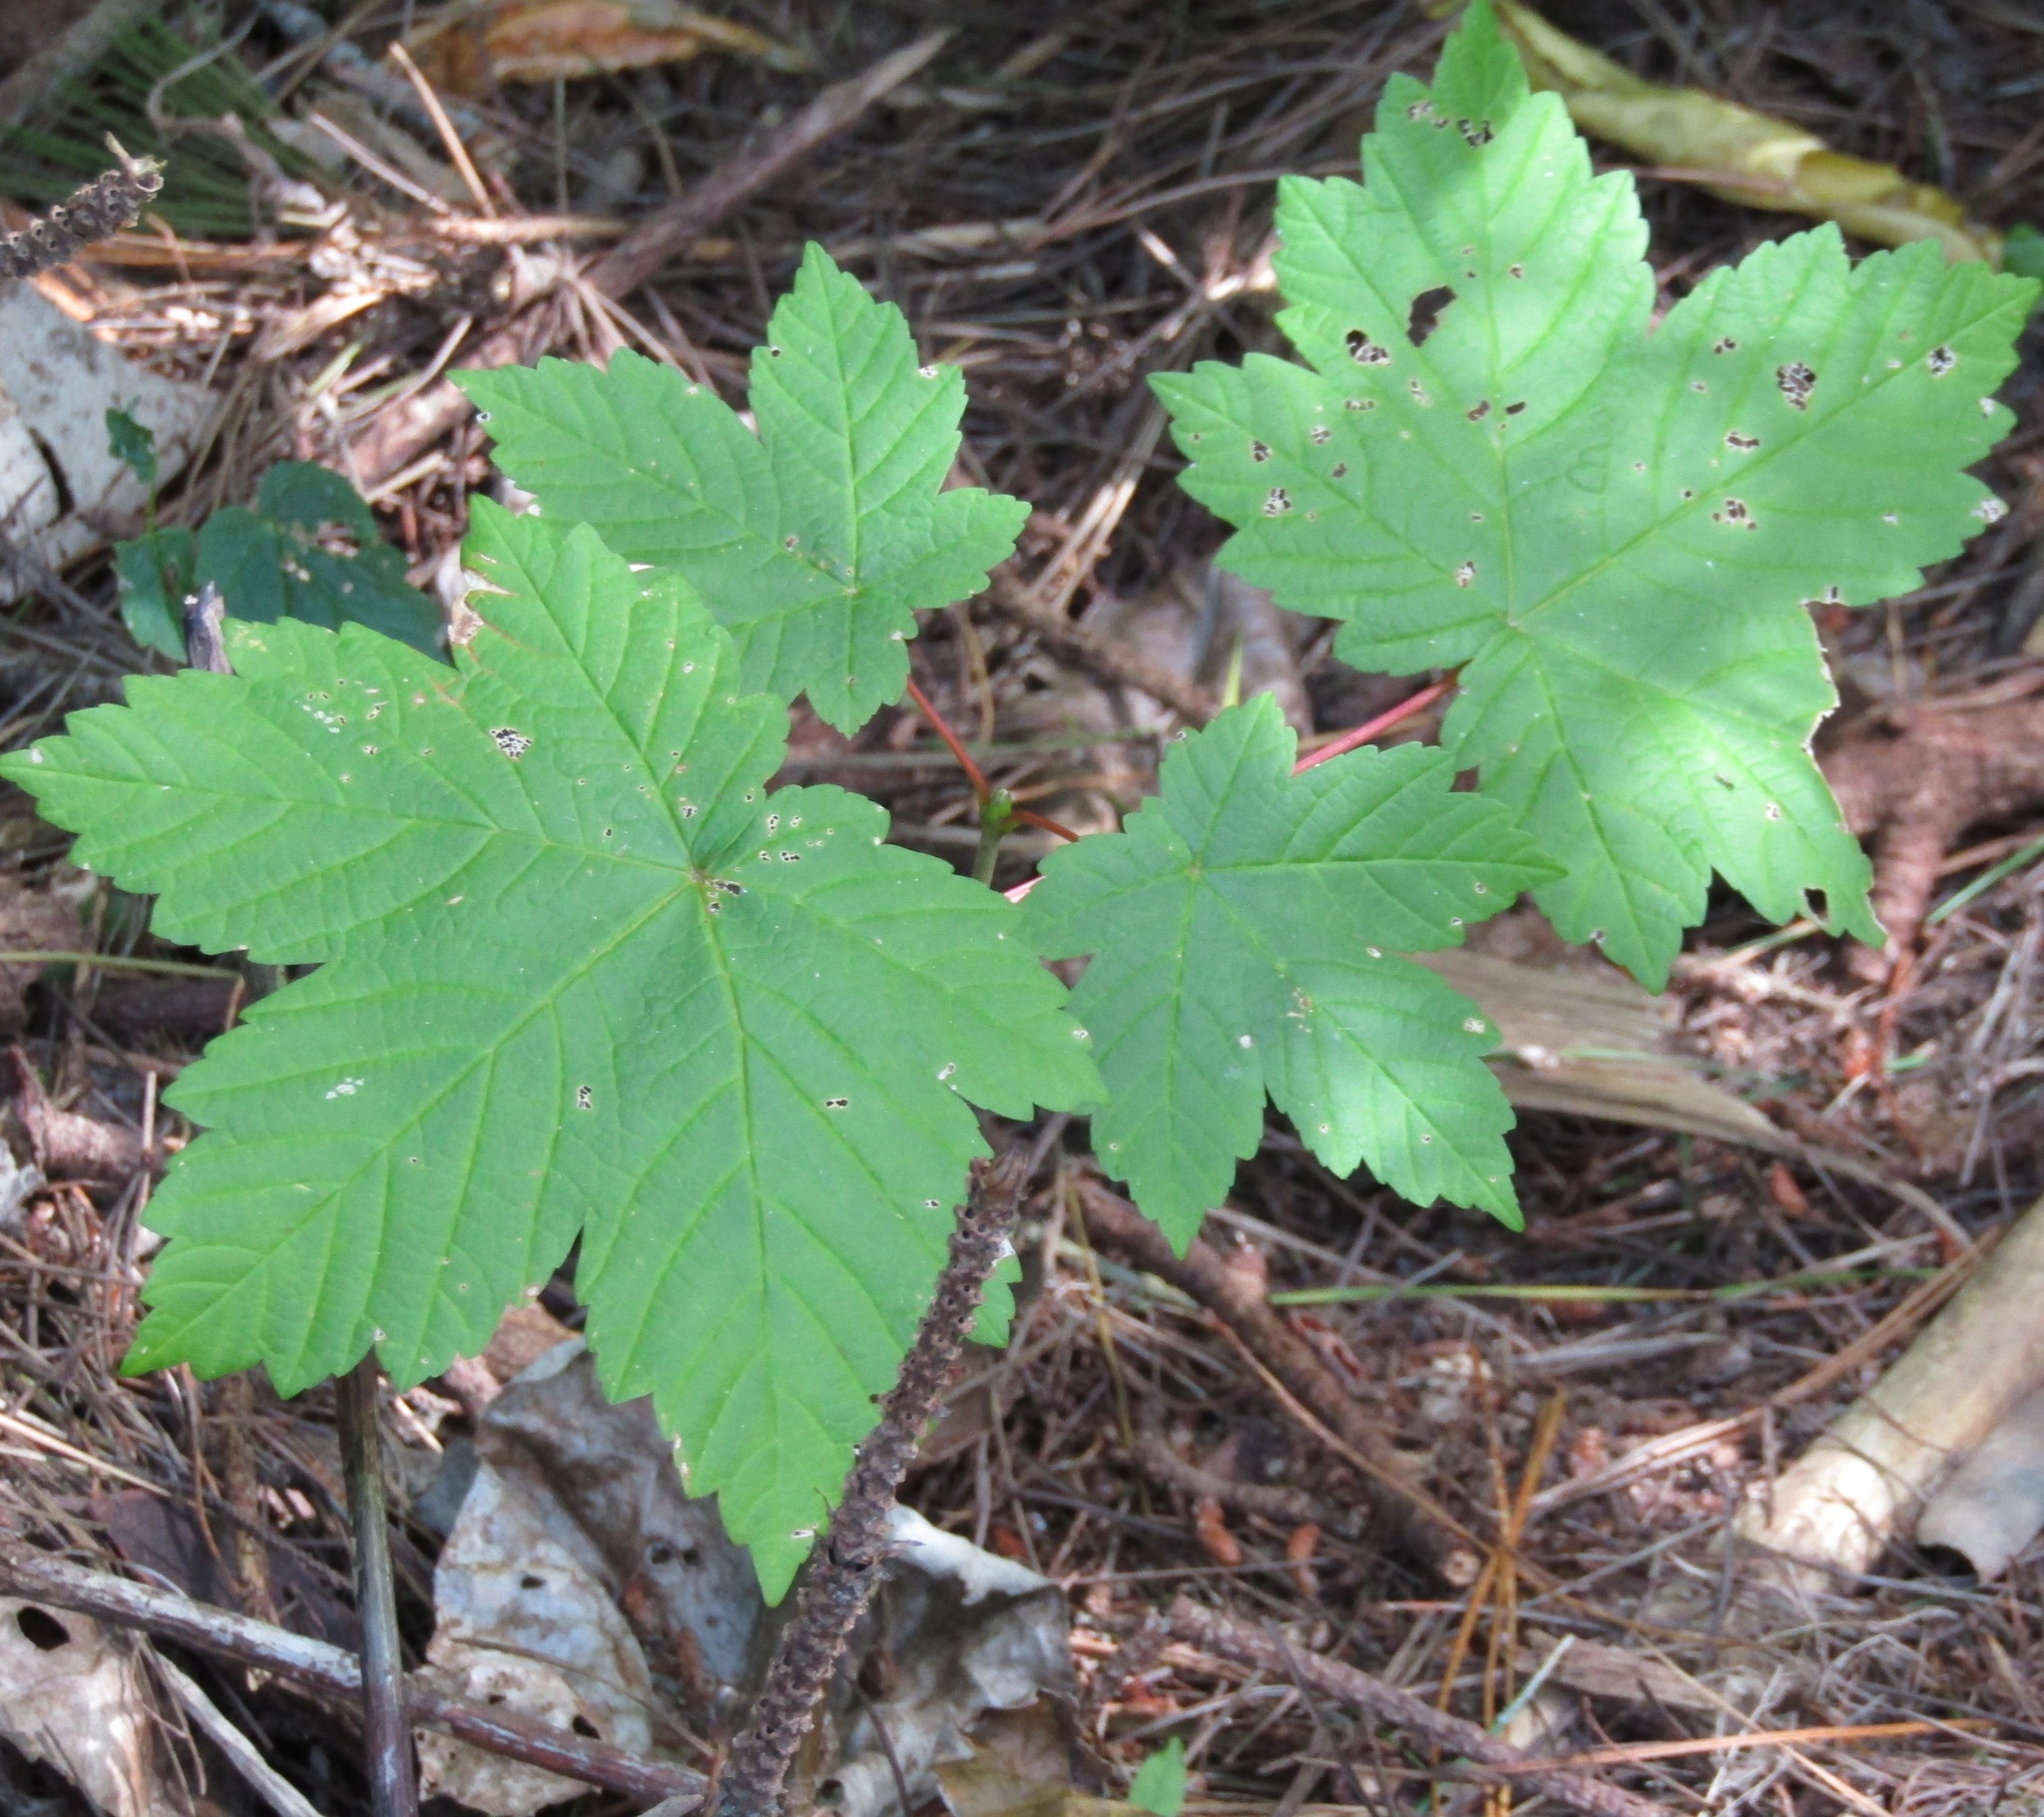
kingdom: Plantae
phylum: Tracheophyta
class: Magnoliopsida
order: Sapindales
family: Sapindaceae
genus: Acer
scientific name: Acer pseudoplatanus
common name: Sycamore
